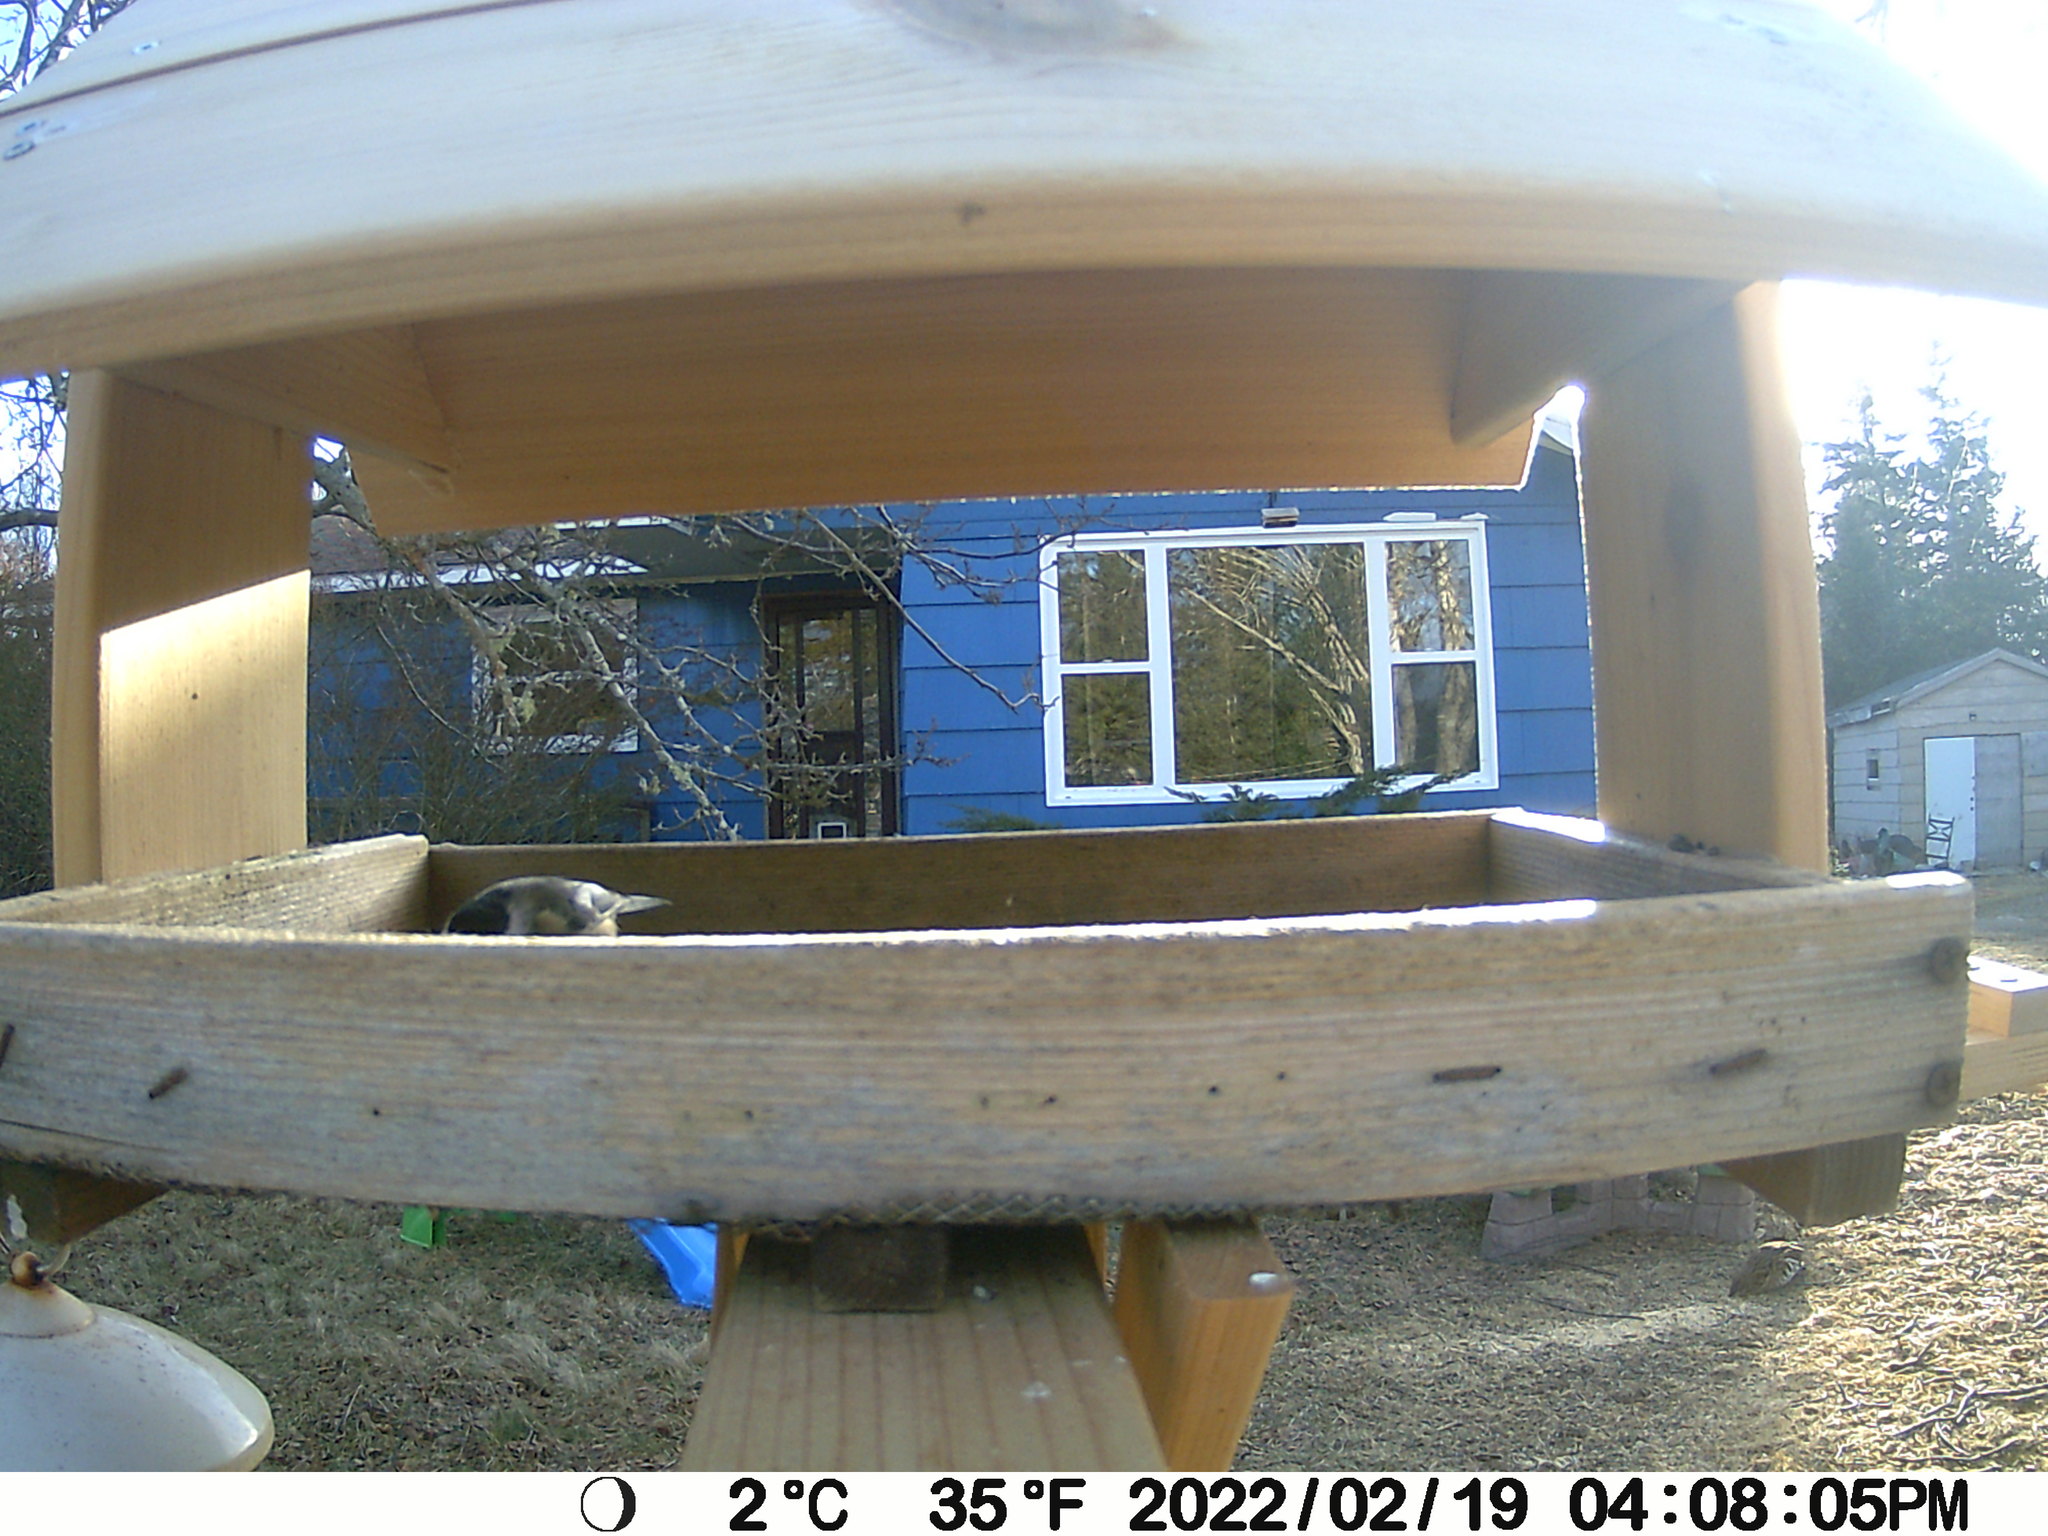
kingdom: Animalia
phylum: Chordata
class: Aves
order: Galliformes
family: Phasianidae
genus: Bonasa
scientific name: Bonasa umbellus
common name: Ruffed grouse
